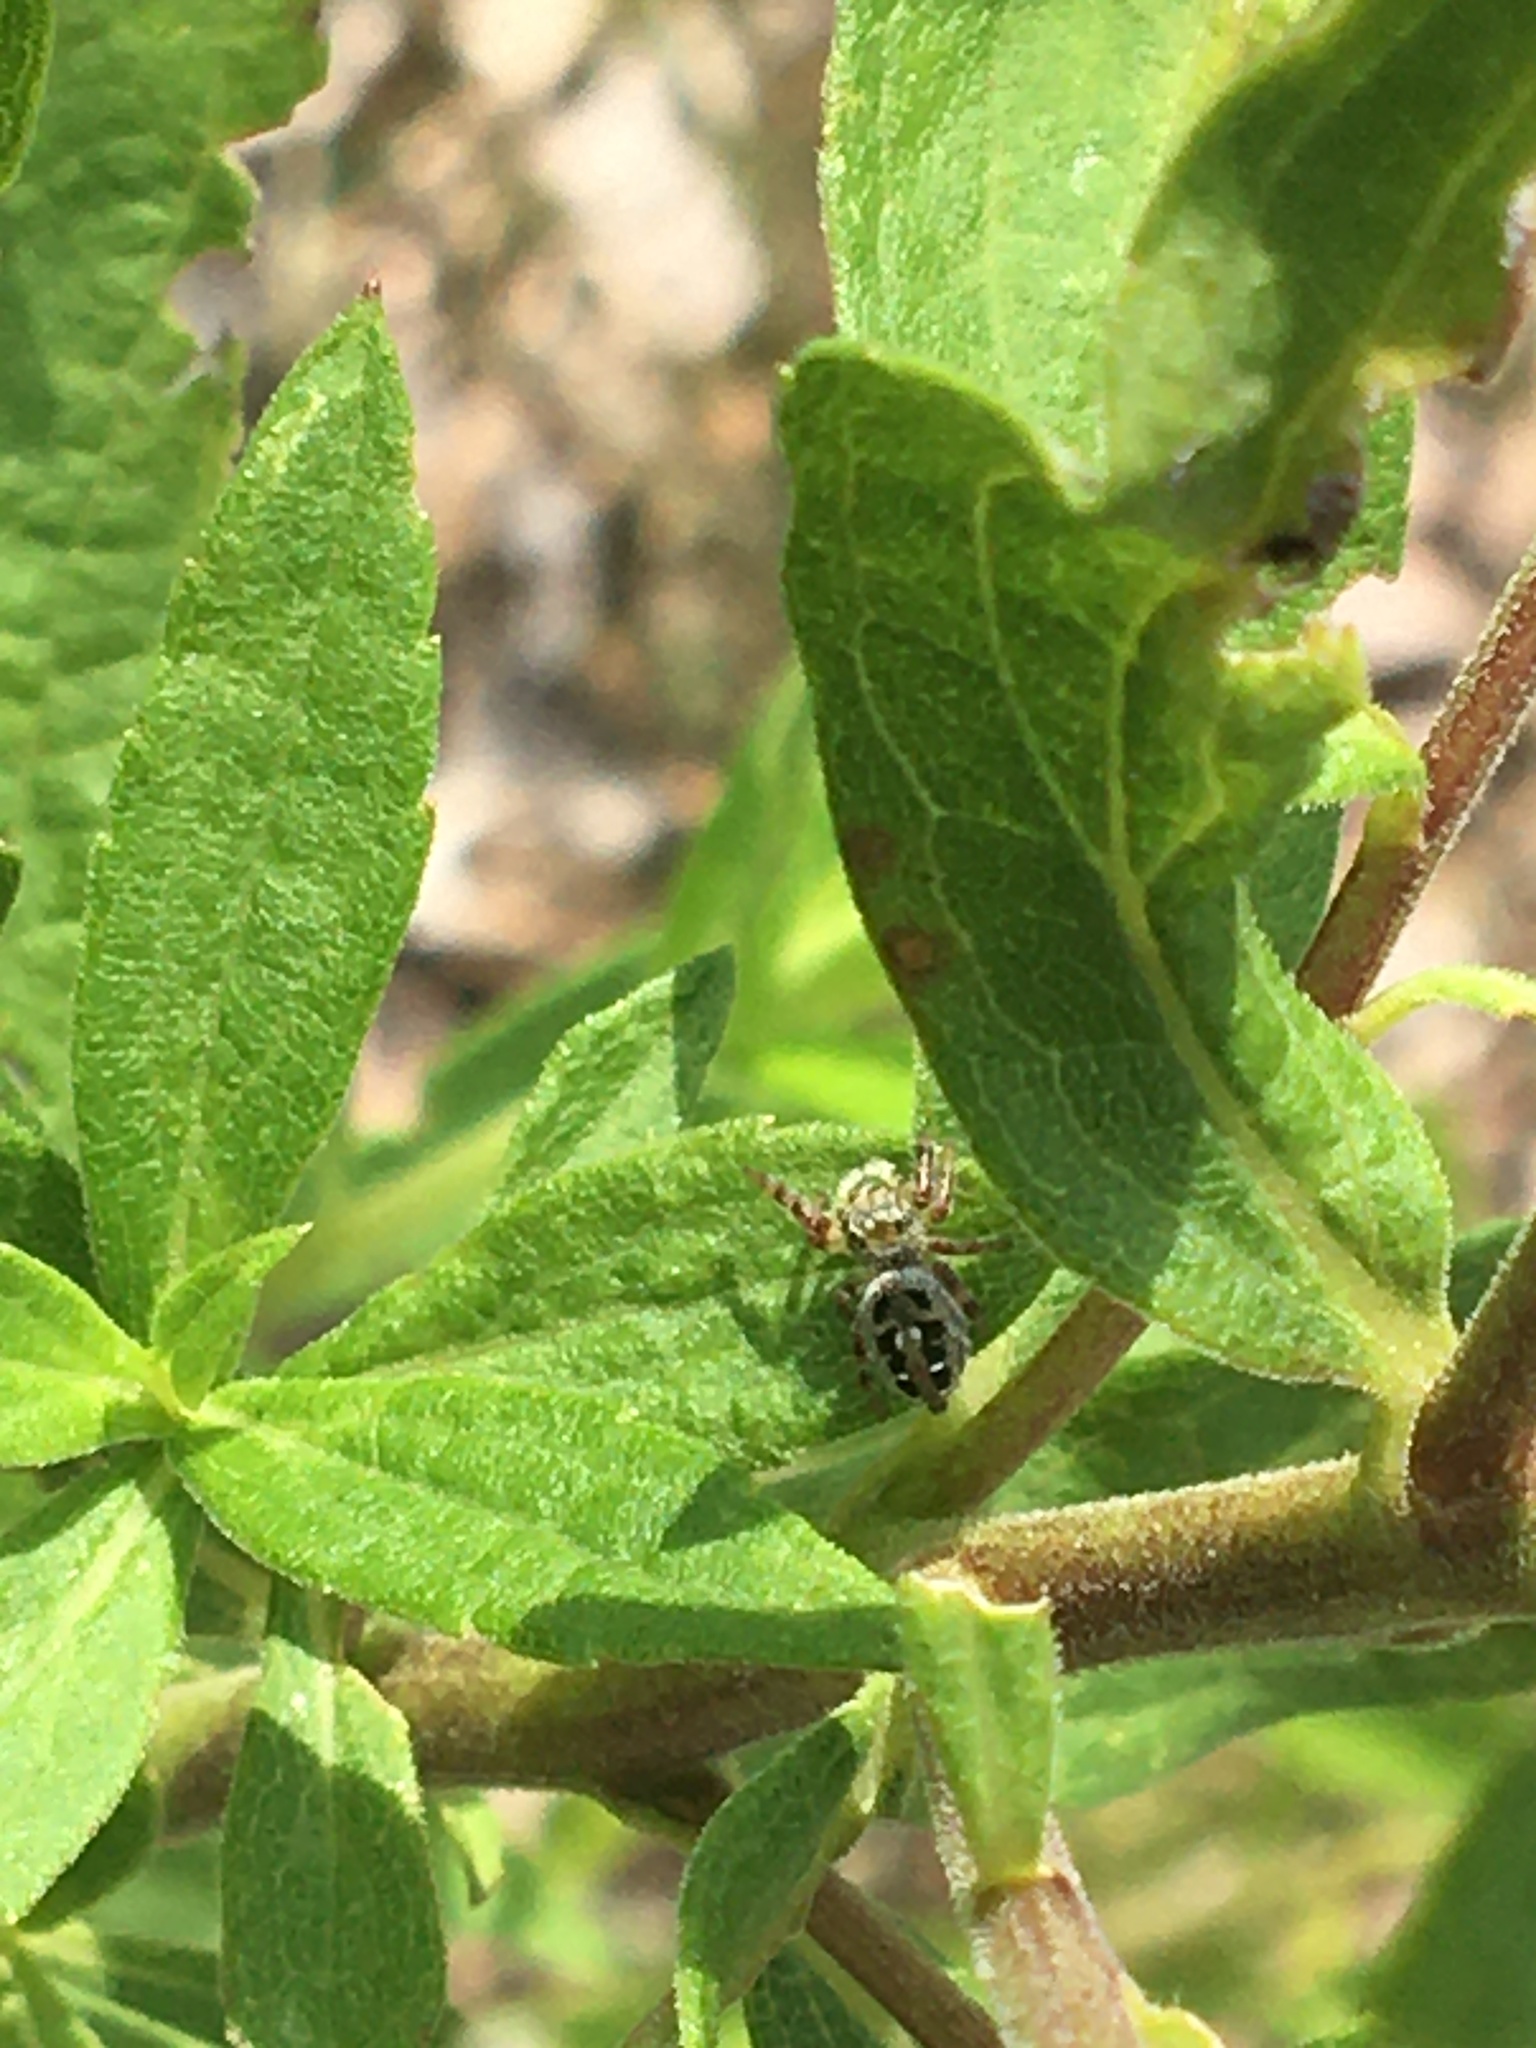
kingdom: Animalia
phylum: Arthropoda
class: Arachnida
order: Araneae
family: Salticidae
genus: Phidippus
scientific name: Phidippus princeps
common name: Grayish jumping spider
